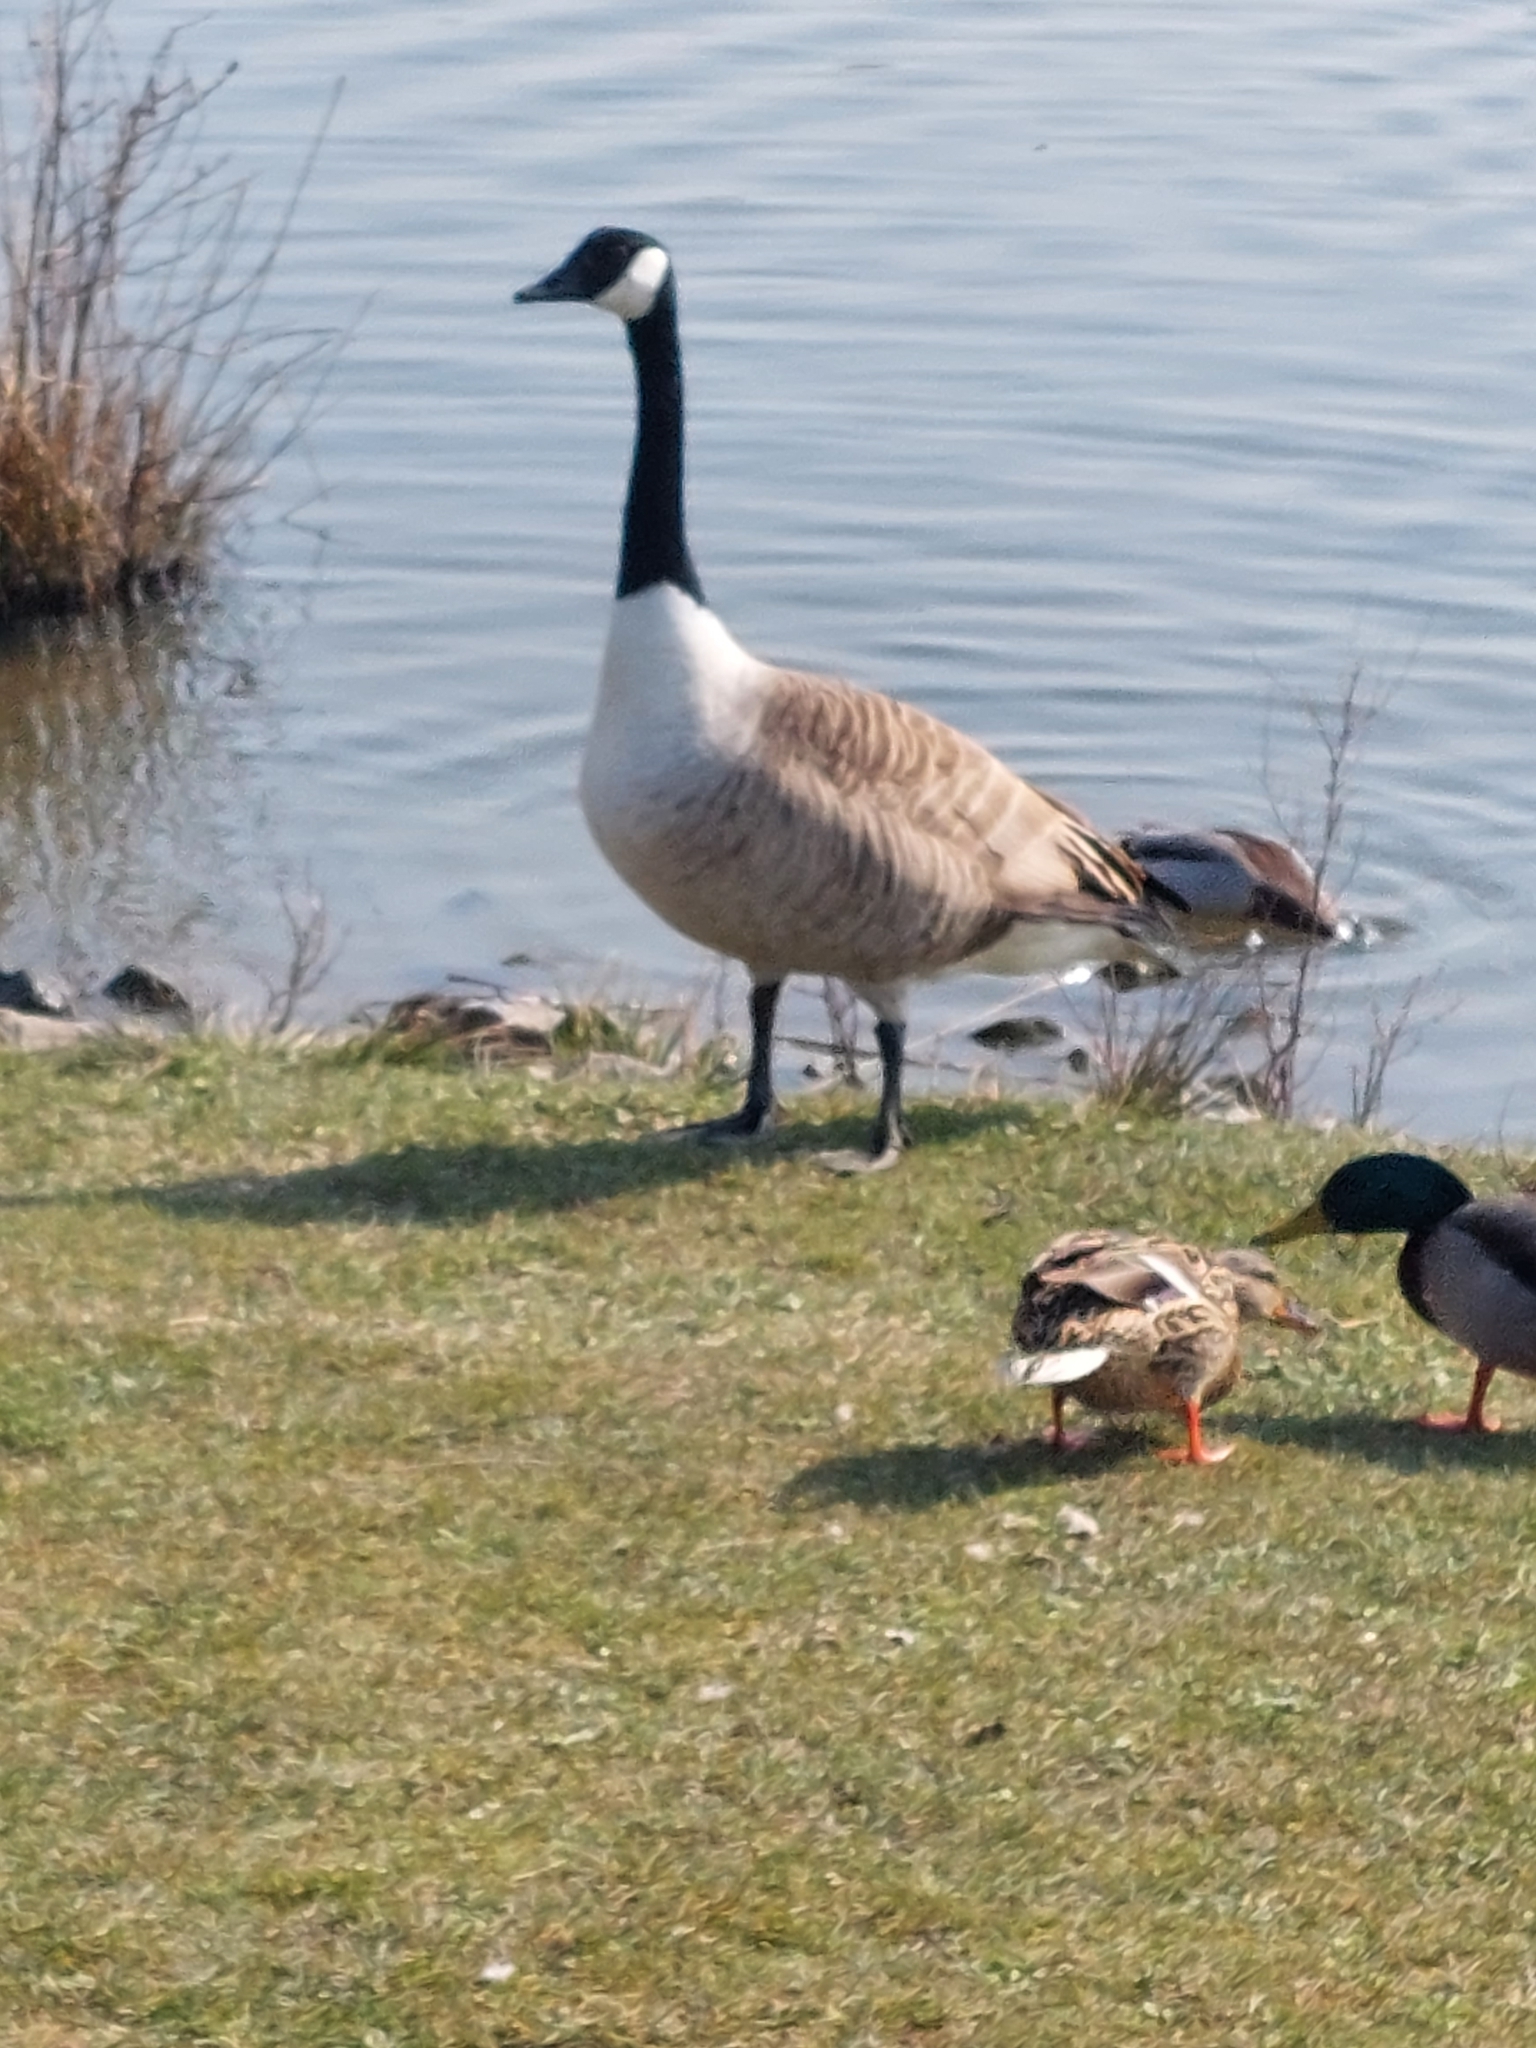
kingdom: Animalia
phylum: Chordata
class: Aves
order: Anseriformes
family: Anatidae
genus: Branta
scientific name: Branta canadensis
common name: Canada goose
